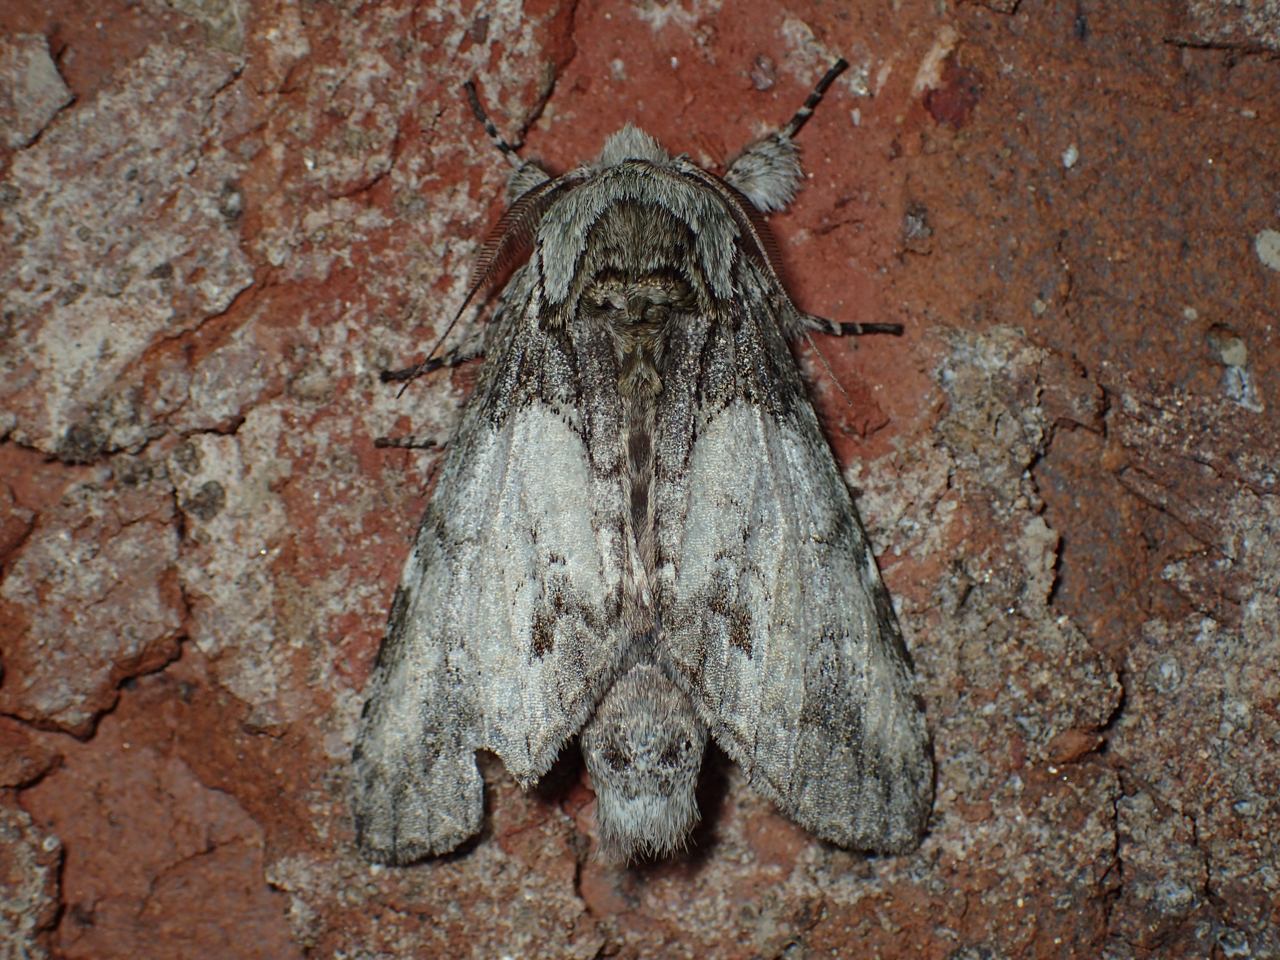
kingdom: Animalia
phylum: Arthropoda
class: Insecta
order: Lepidoptera
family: Notodontidae
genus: Macrurocampa
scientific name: Macrurocampa marthesia
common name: Mottled prominent
